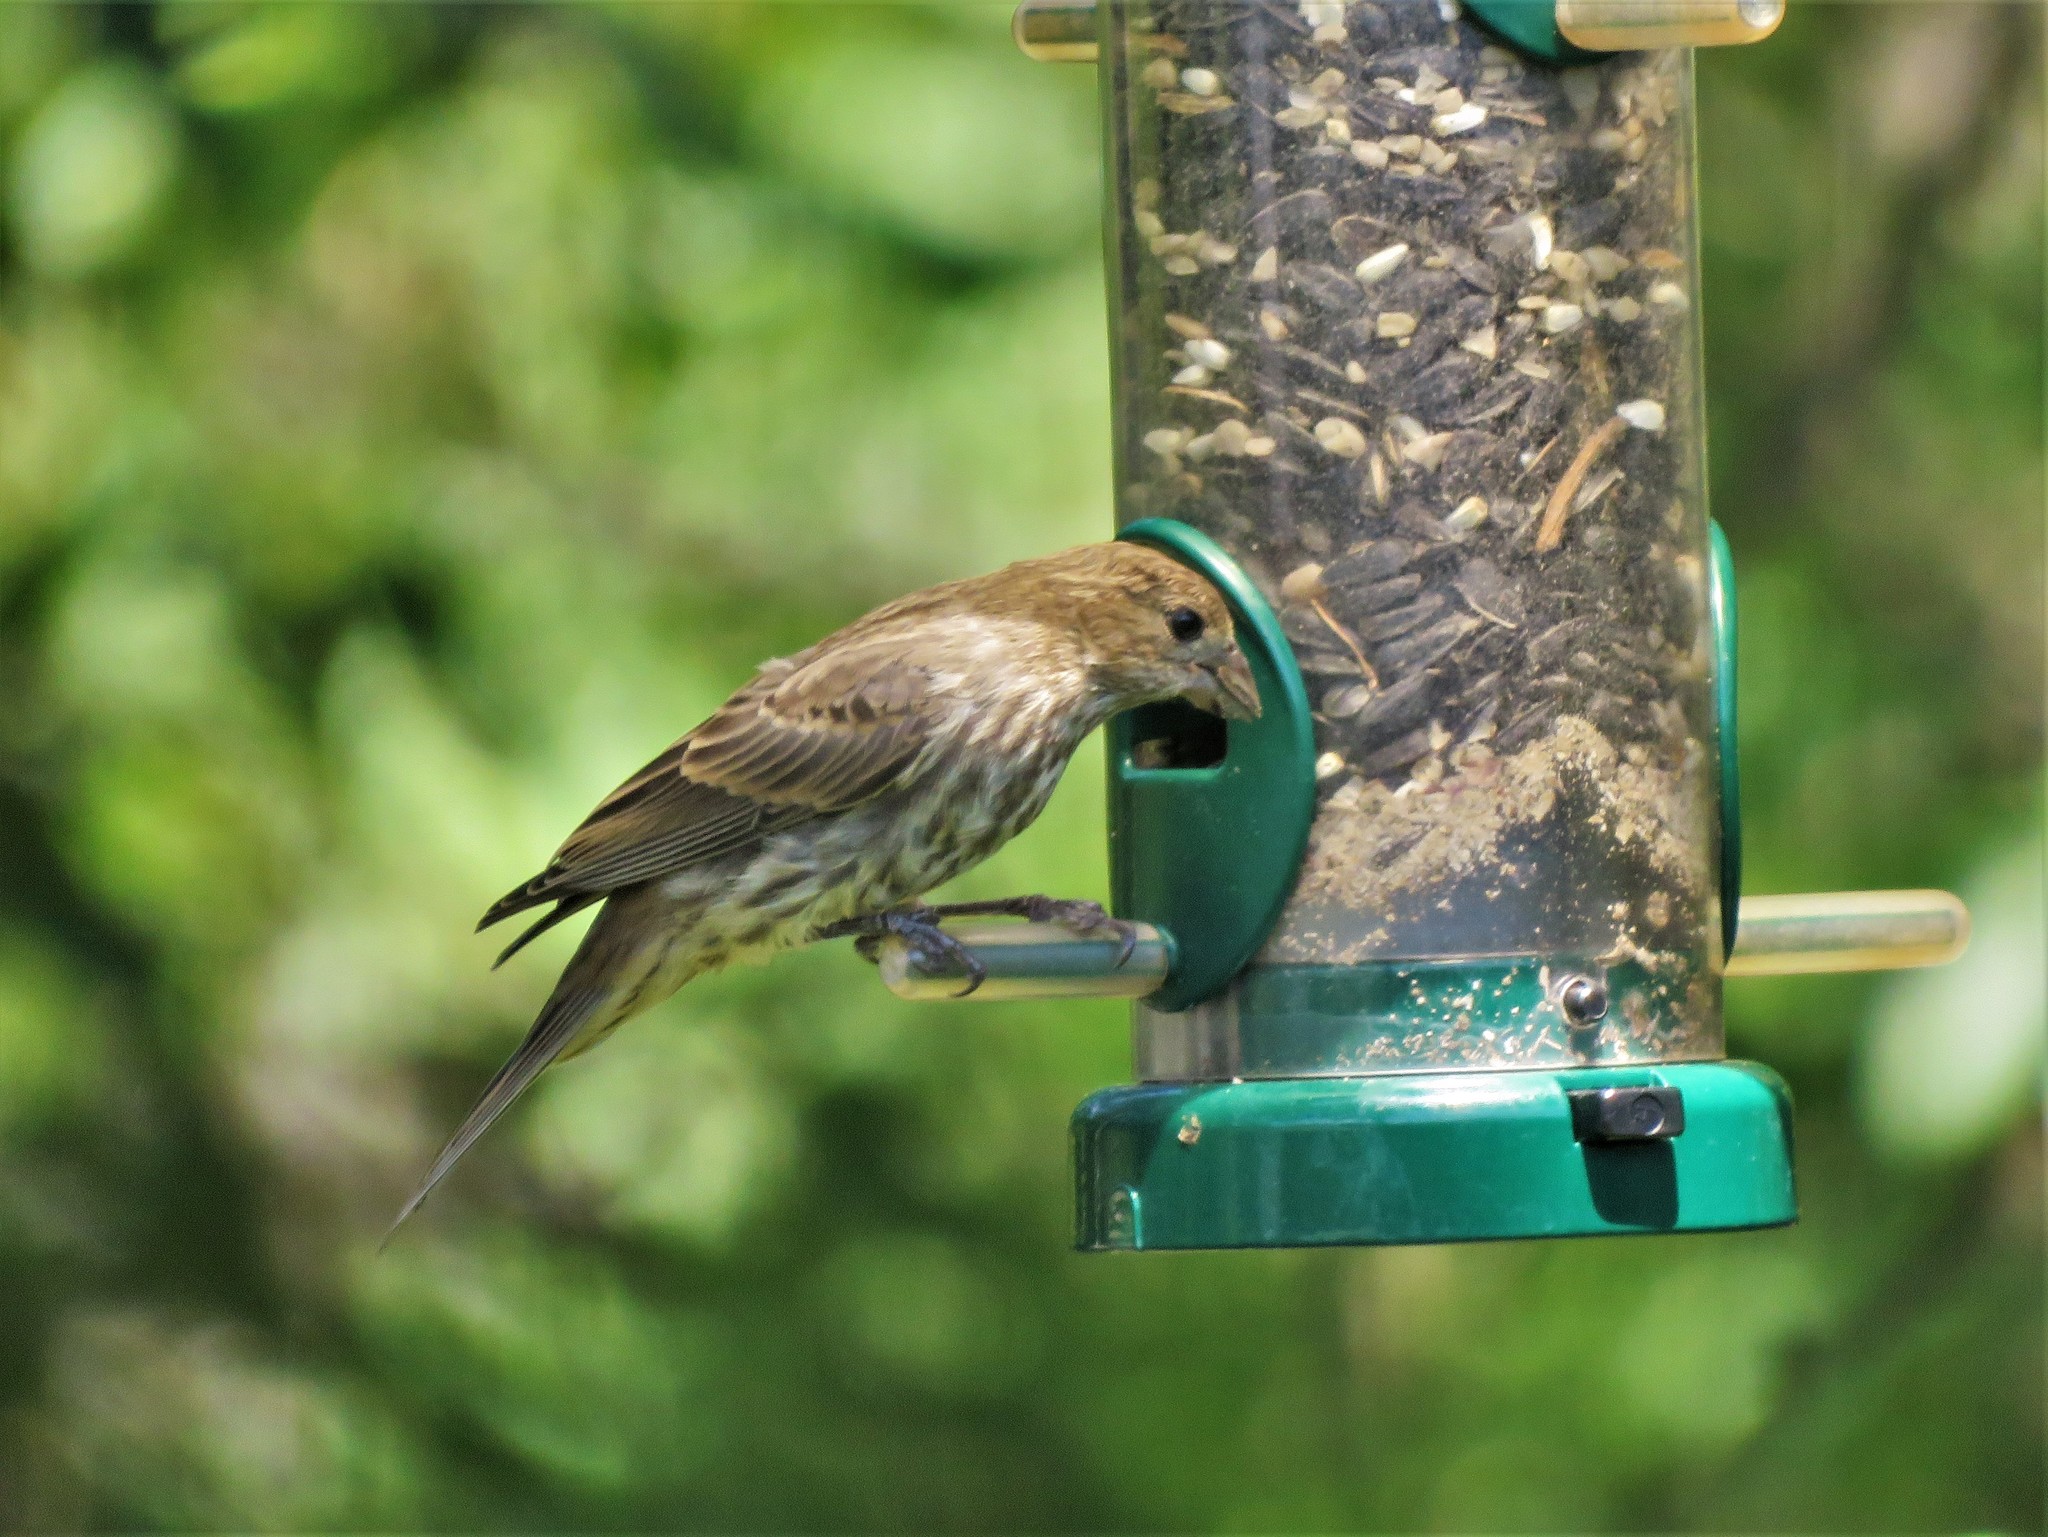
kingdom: Animalia
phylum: Chordata
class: Aves
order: Passeriformes
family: Fringillidae
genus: Haemorhous
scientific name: Haemorhous mexicanus
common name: House finch
